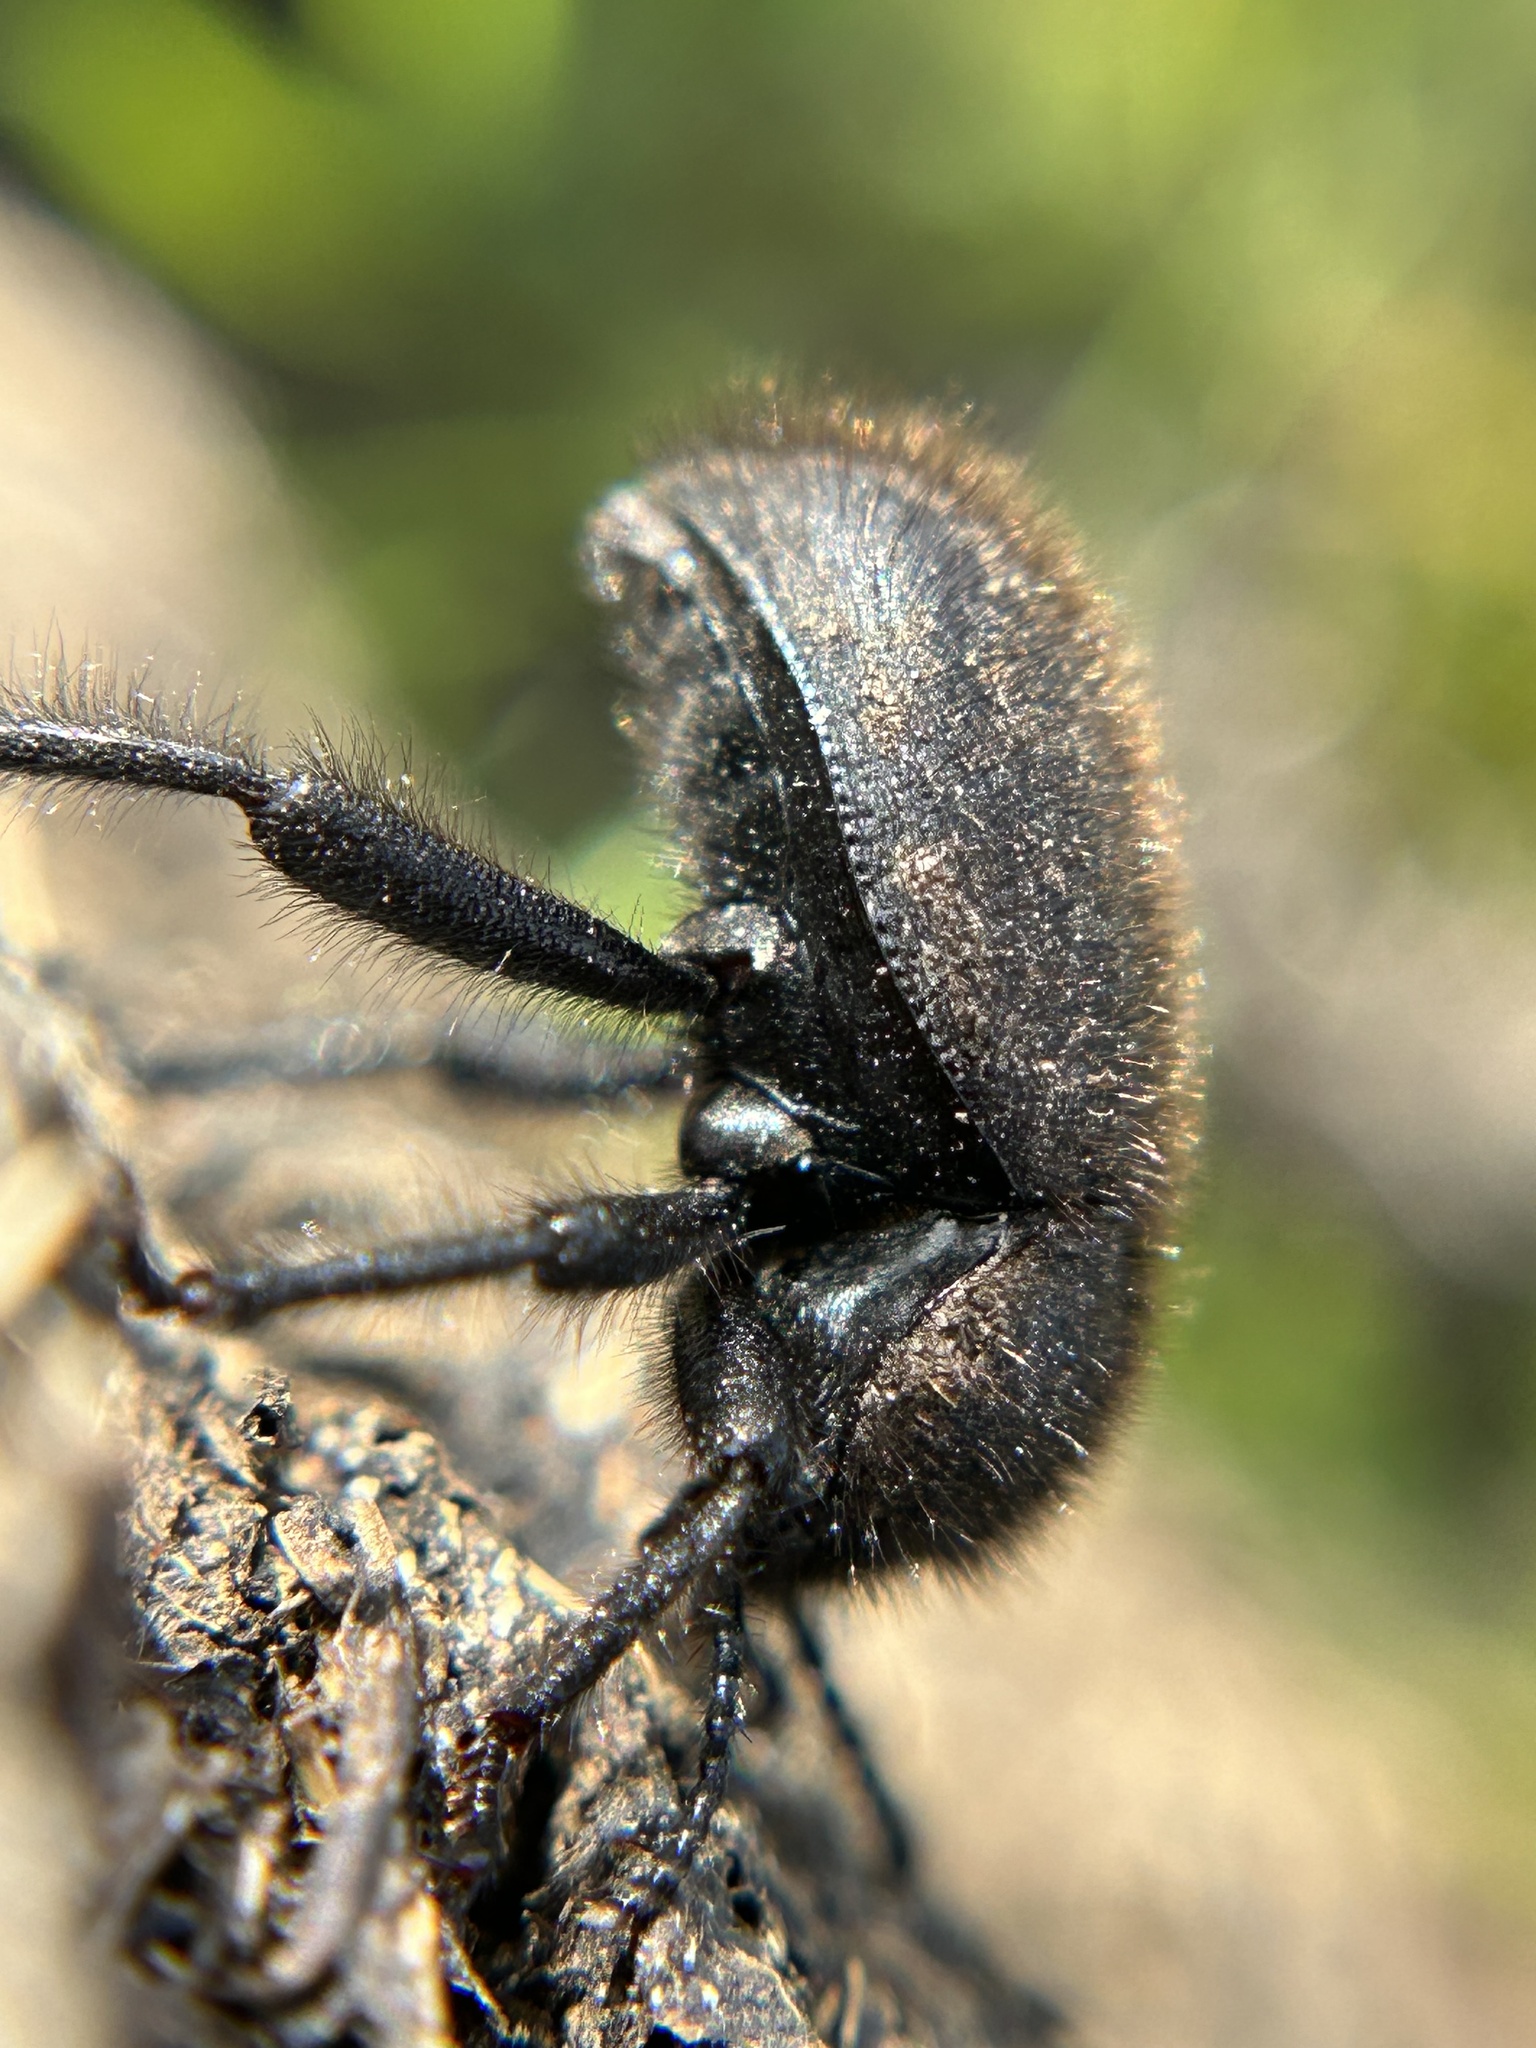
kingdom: Animalia
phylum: Arthropoda
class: Insecta
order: Coleoptera
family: Tenebrionidae
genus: Eleodes
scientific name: Eleodes osculans
